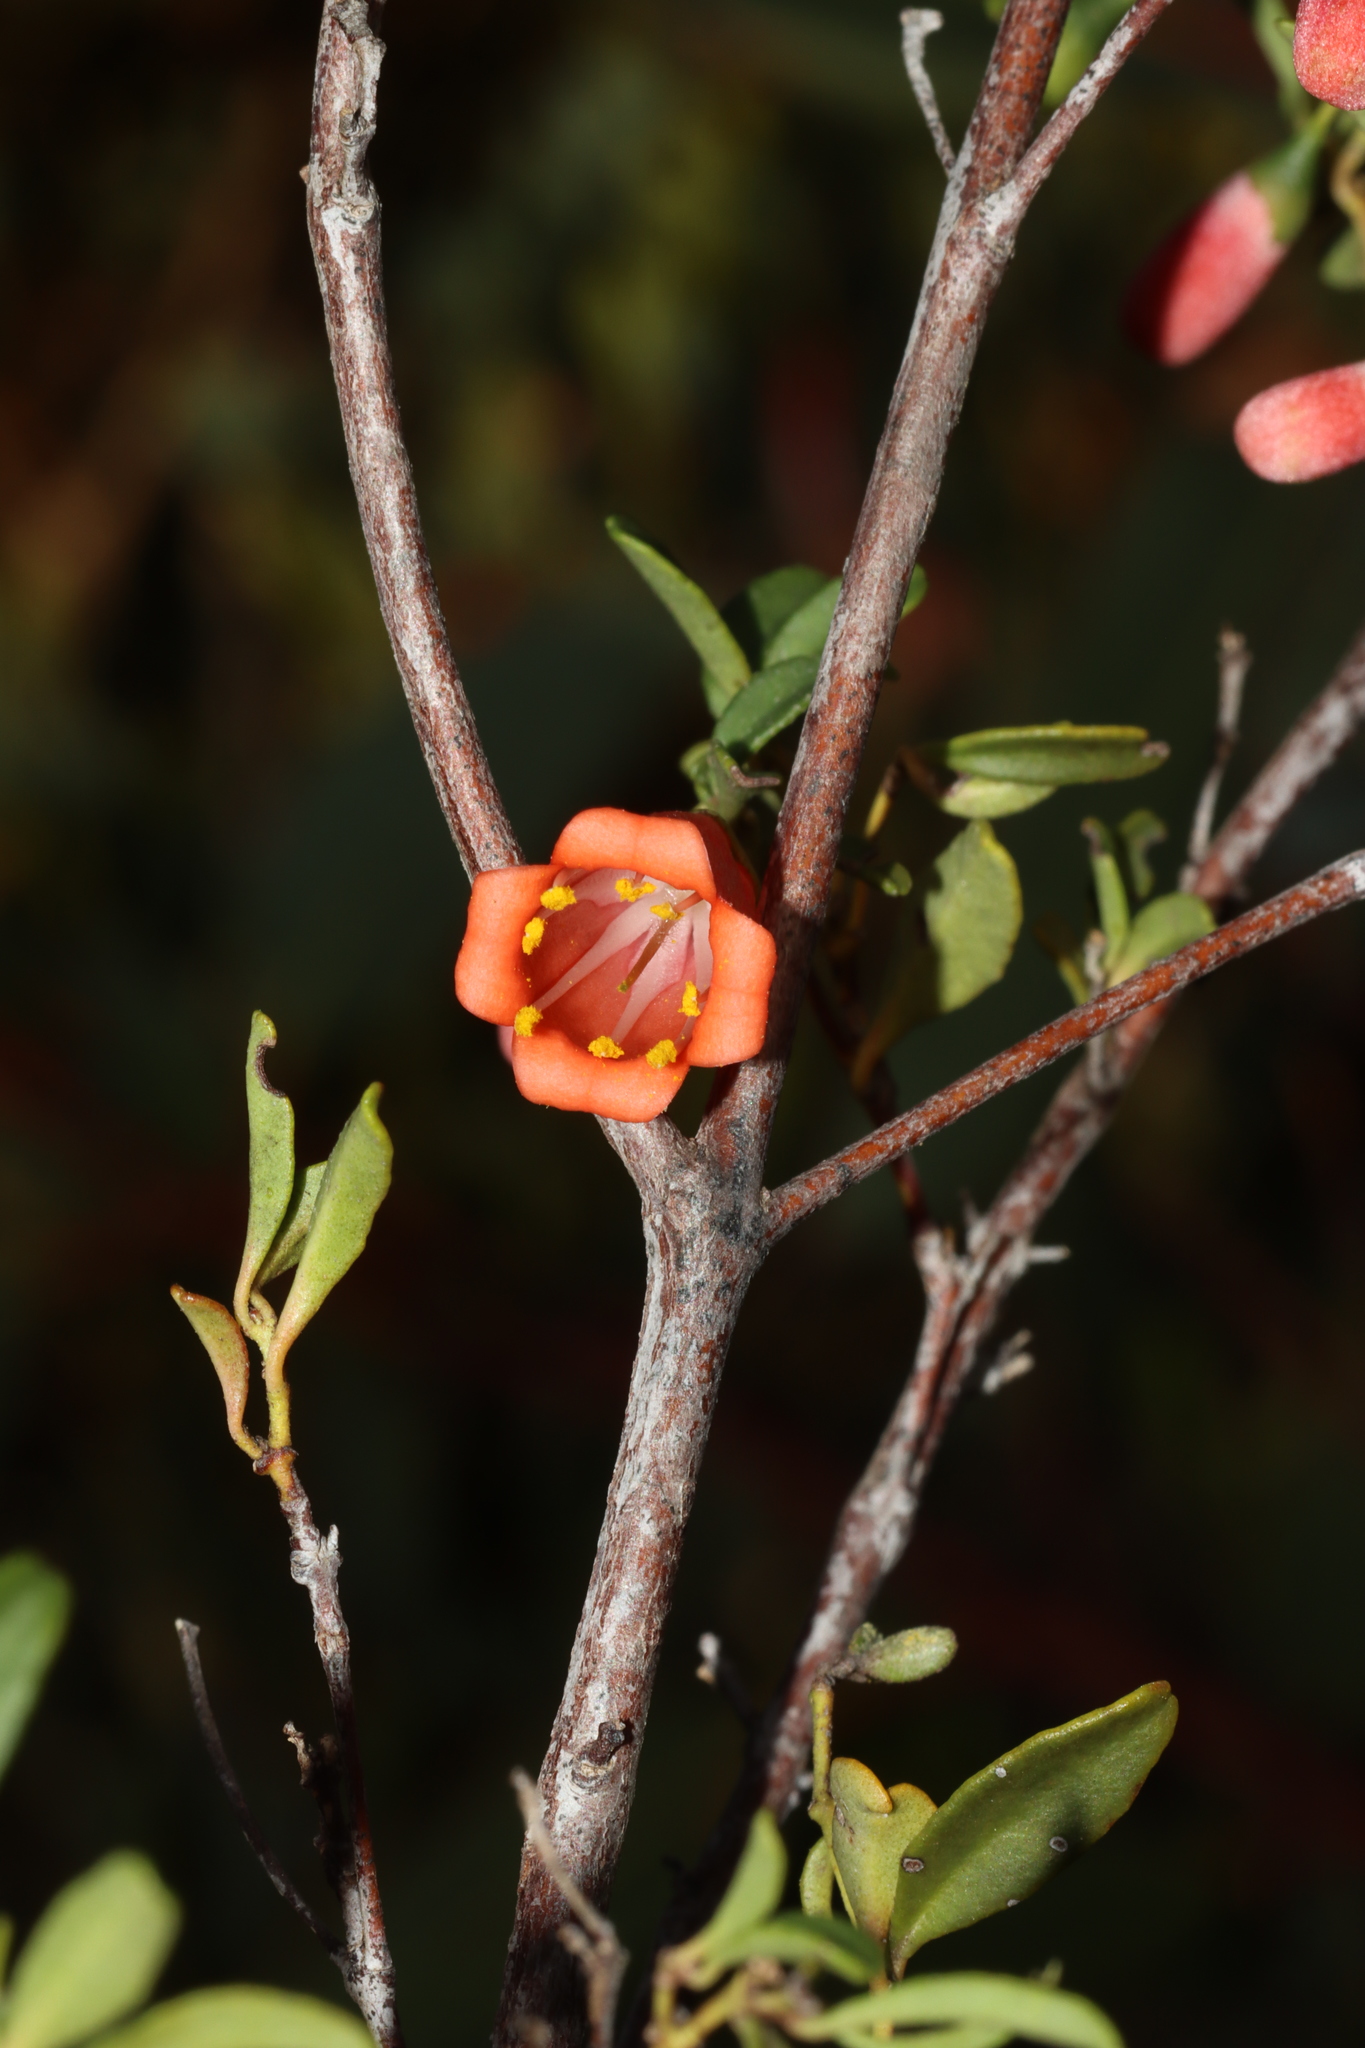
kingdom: Plantae
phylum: Tracheophyta
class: Magnoliopsida
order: Sapindales
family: Rutaceae
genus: Correa
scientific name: Correa pulchella
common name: Salmon correa
